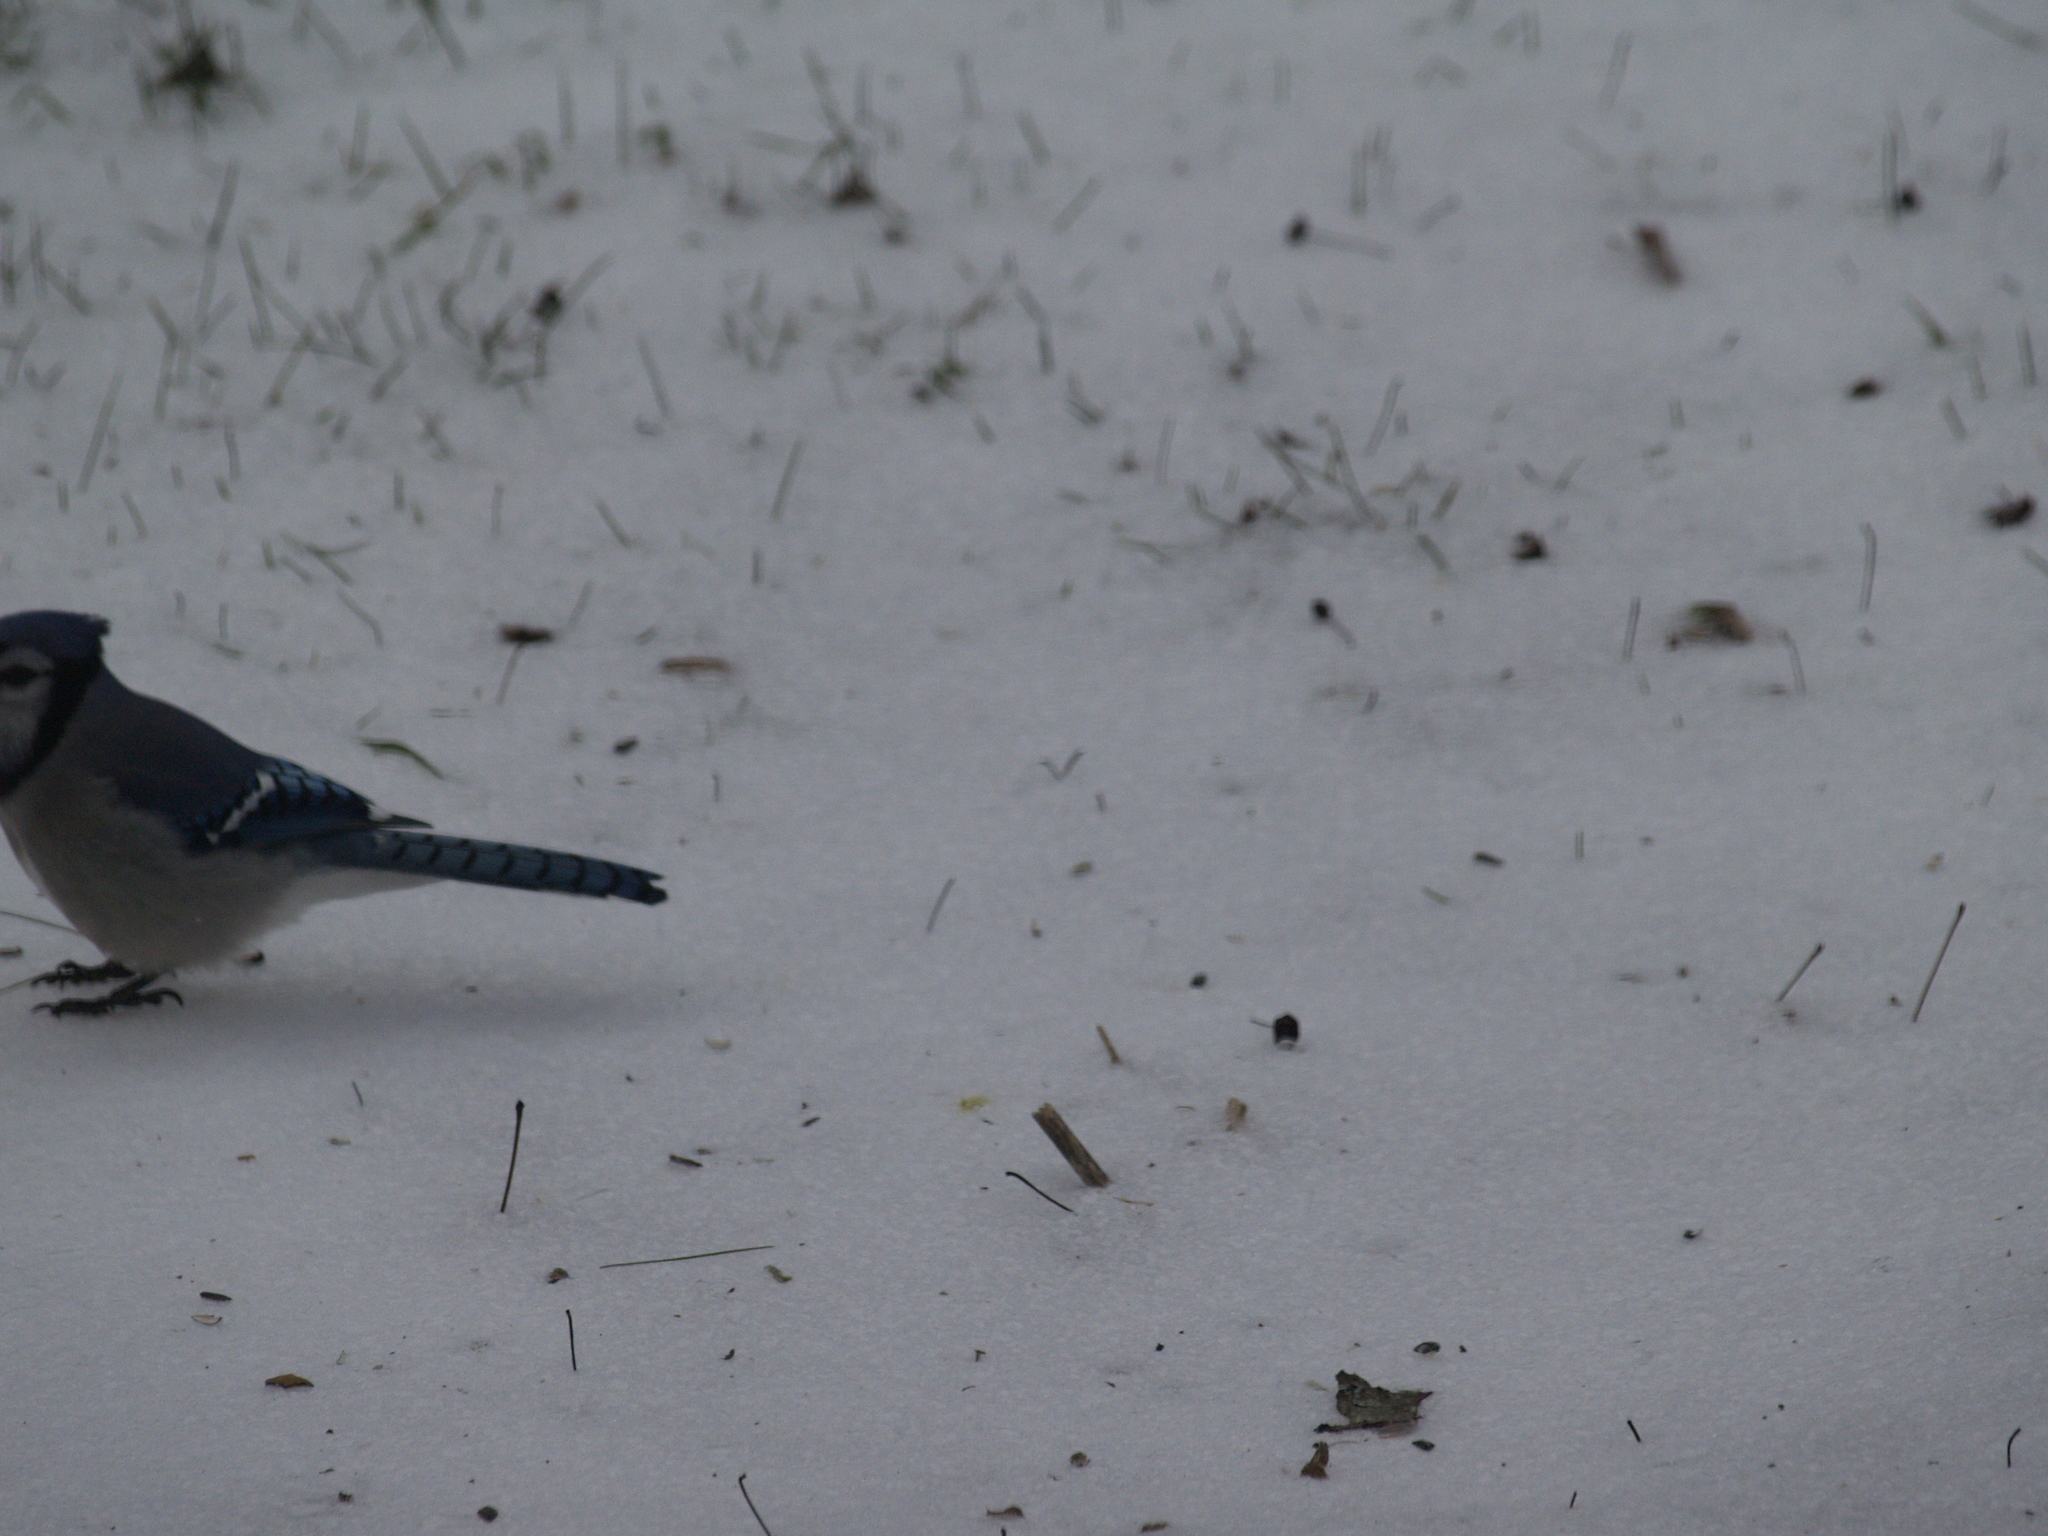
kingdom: Animalia
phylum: Chordata
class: Aves
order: Passeriformes
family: Corvidae
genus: Cyanocitta
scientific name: Cyanocitta cristata
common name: Blue jay
